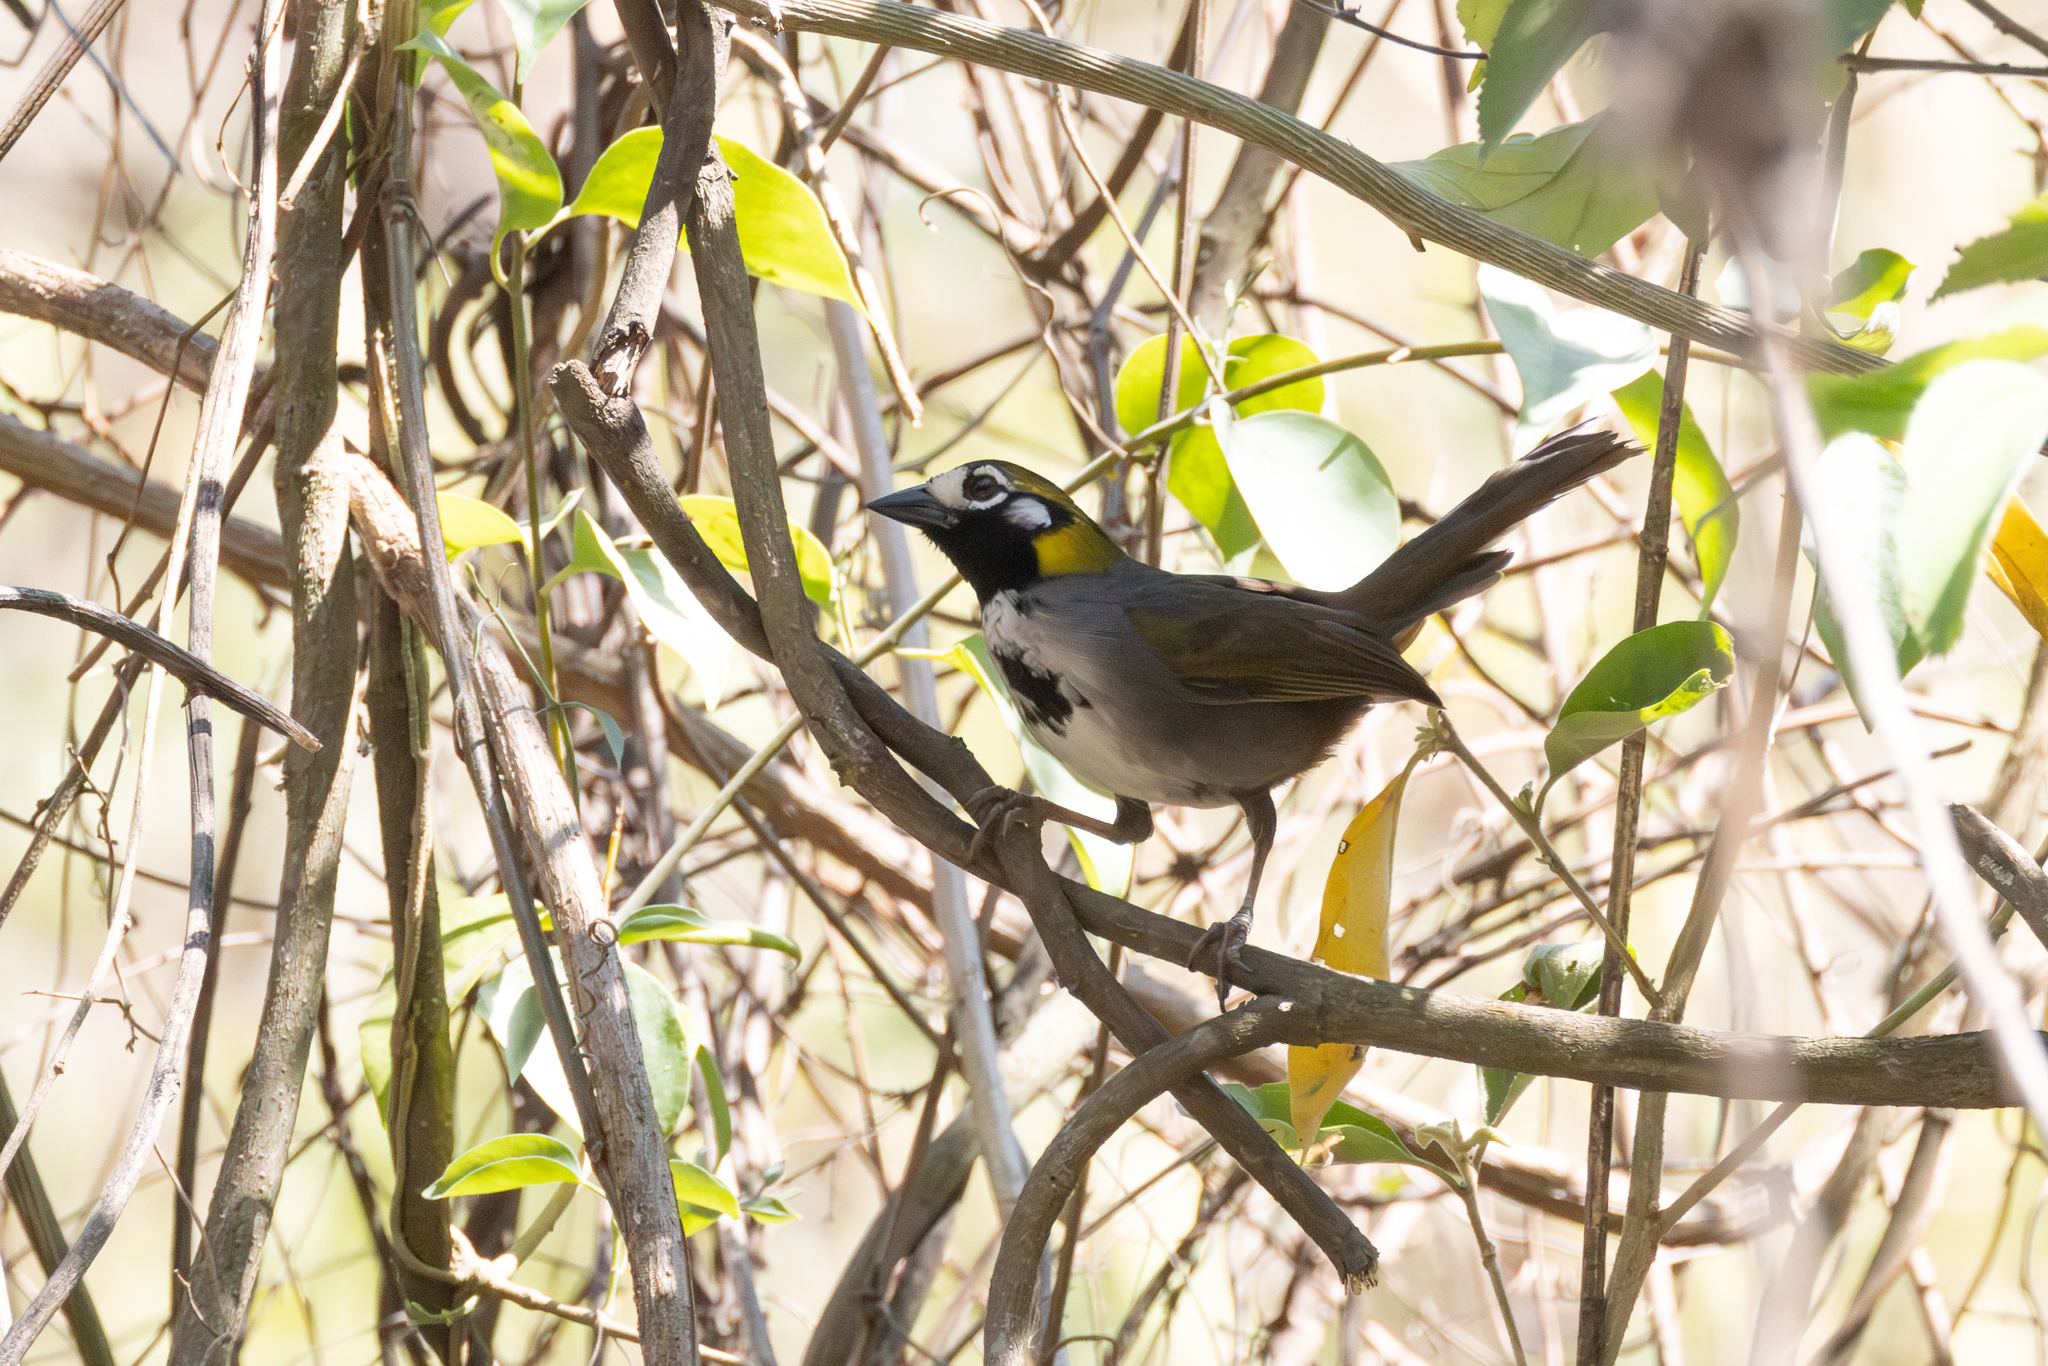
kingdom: Animalia
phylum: Chordata
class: Aves
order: Passeriformes
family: Passerellidae
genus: Melozone
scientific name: Melozone leucotis
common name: White-eared ground-sparrow
